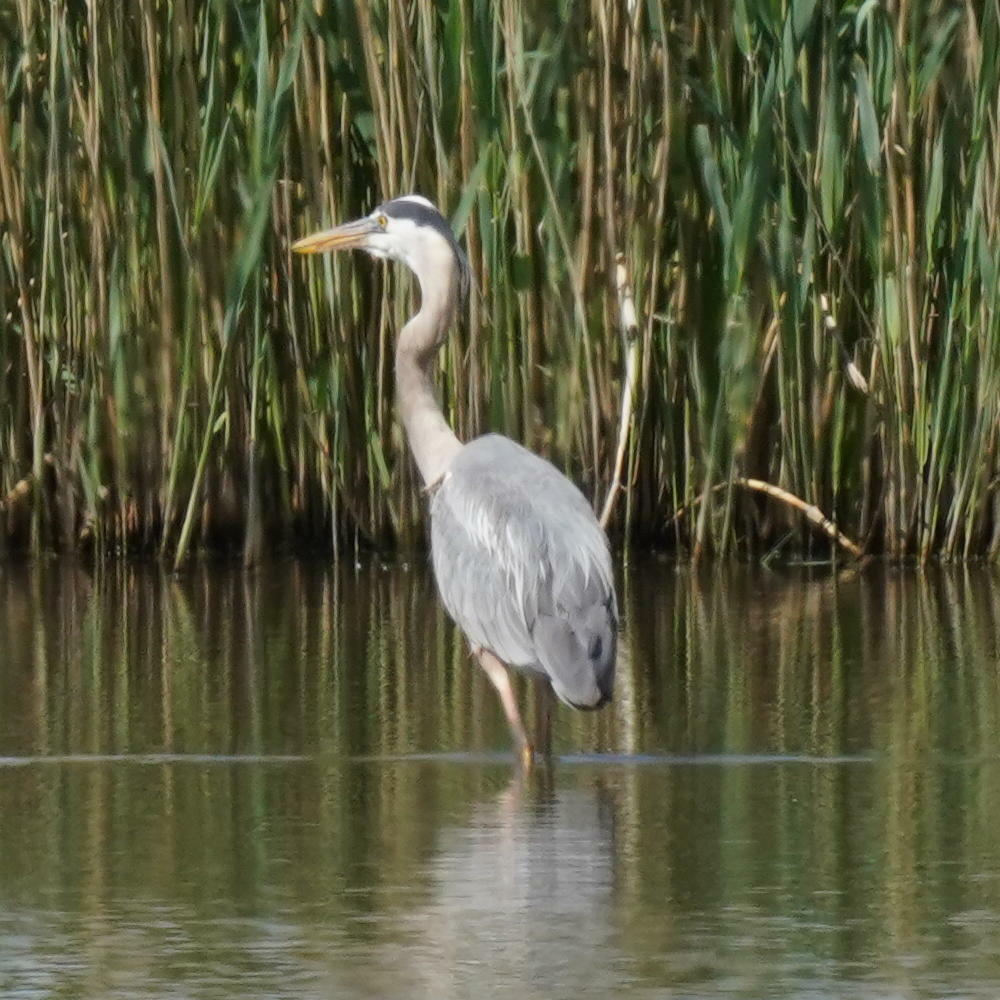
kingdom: Animalia
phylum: Chordata
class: Aves
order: Pelecaniformes
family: Ardeidae
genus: Ardea
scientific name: Ardea herodias
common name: Great blue heron
